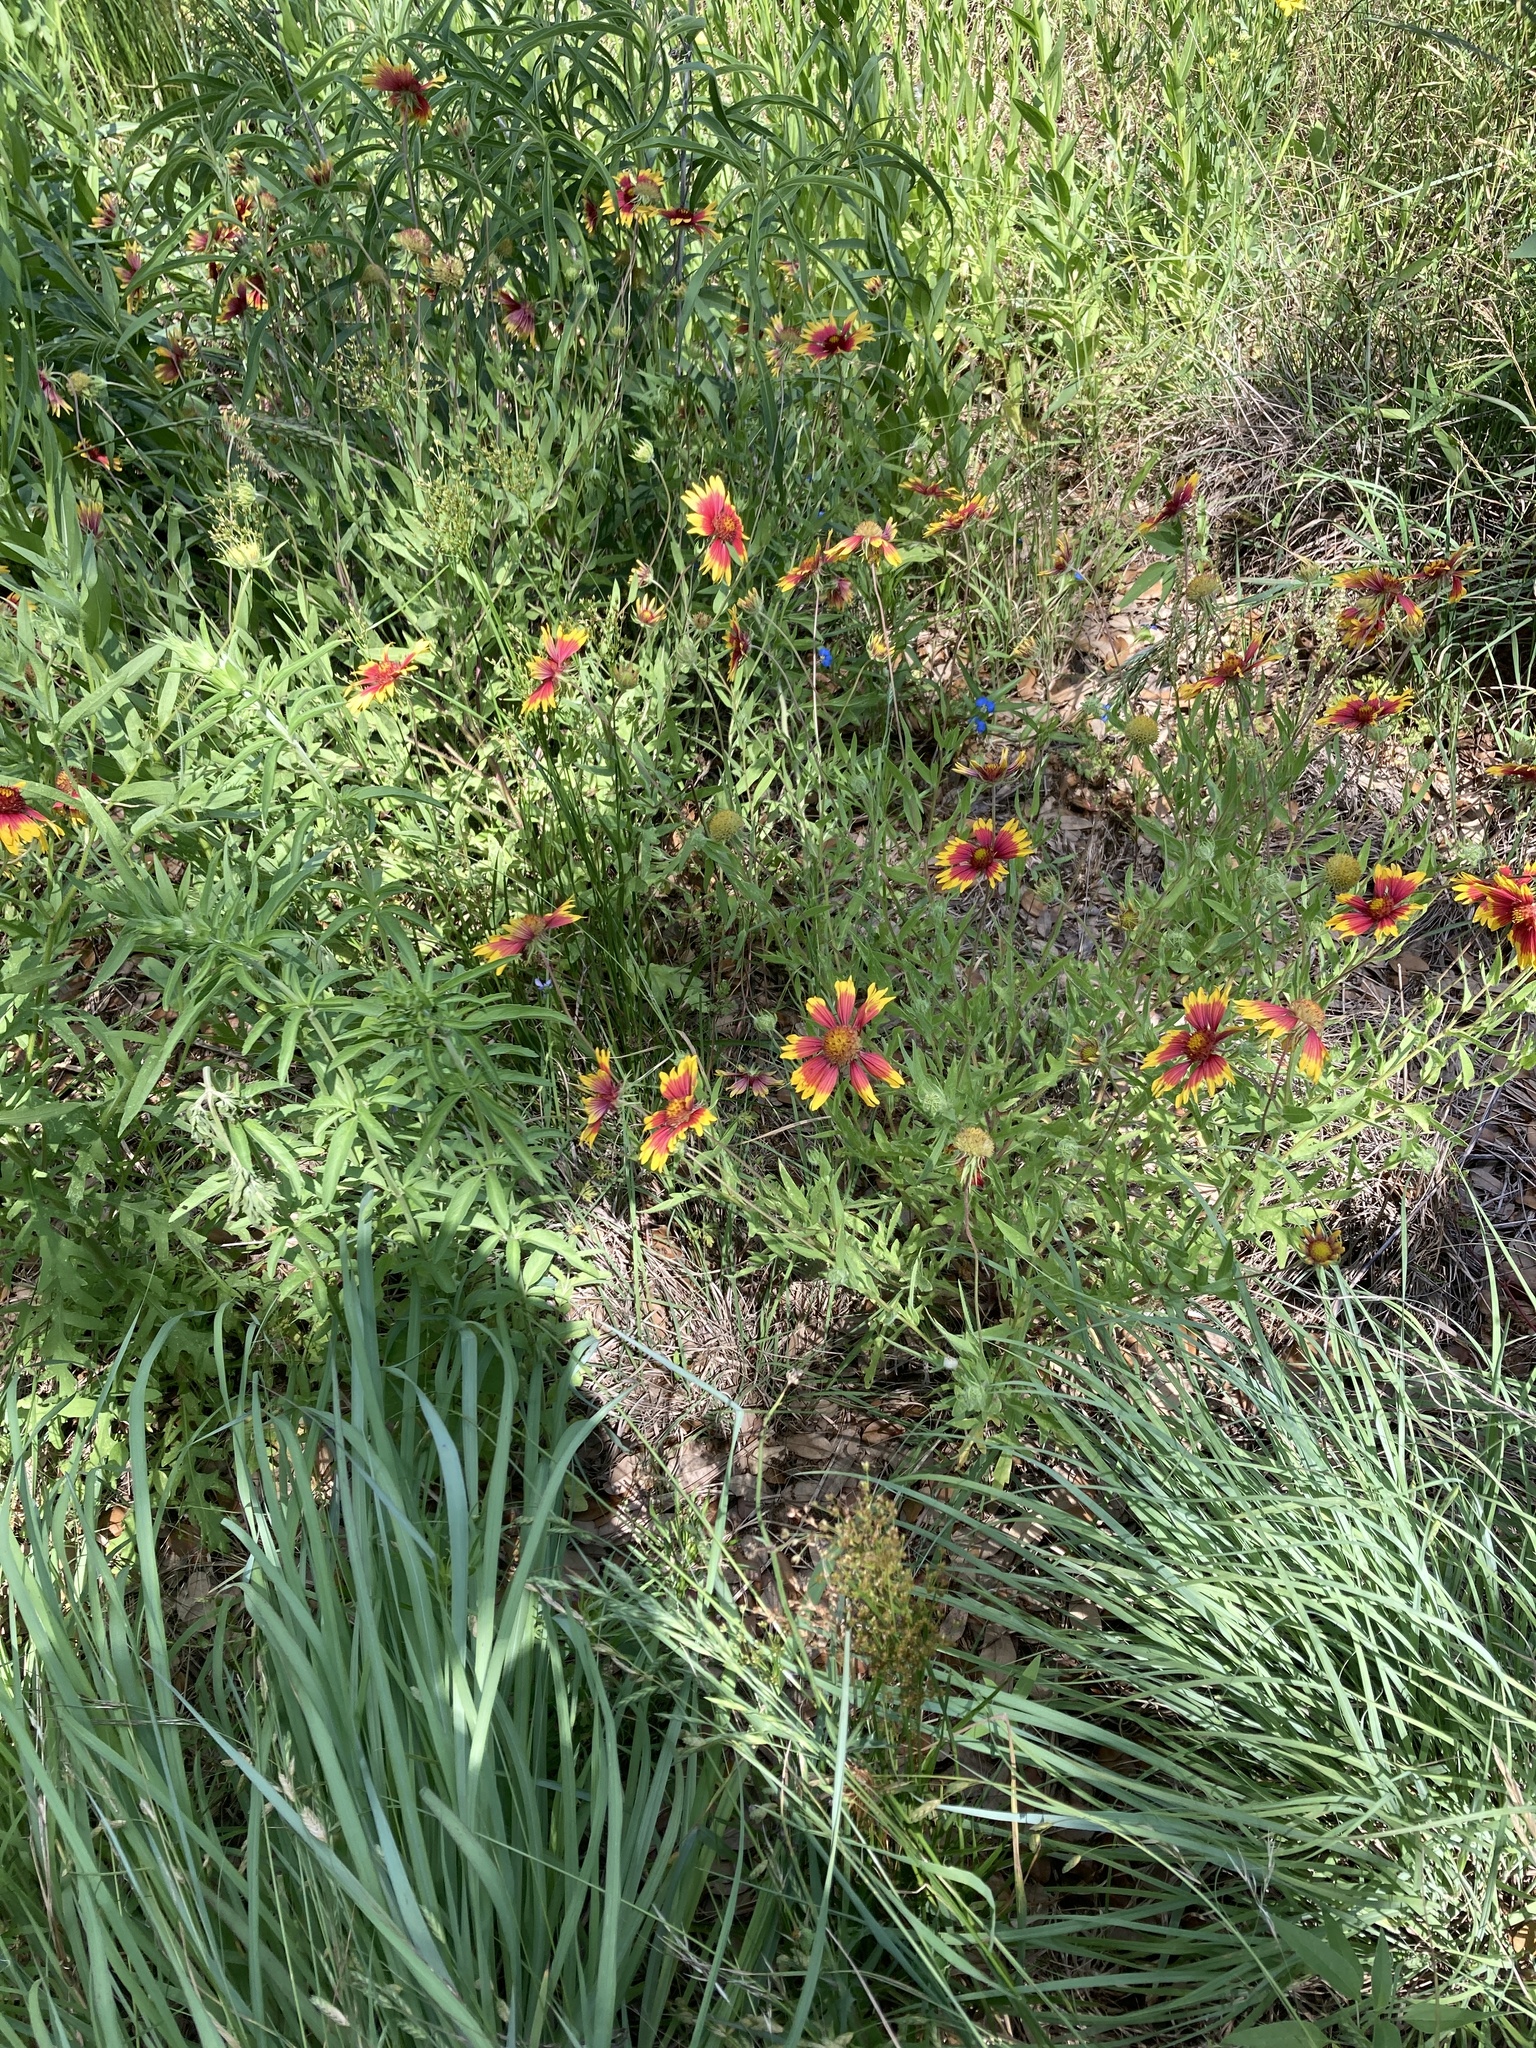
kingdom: Plantae
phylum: Tracheophyta
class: Magnoliopsida
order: Asterales
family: Asteraceae
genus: Gaillardia
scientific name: Gaillardia pulchella
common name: Firewheel
